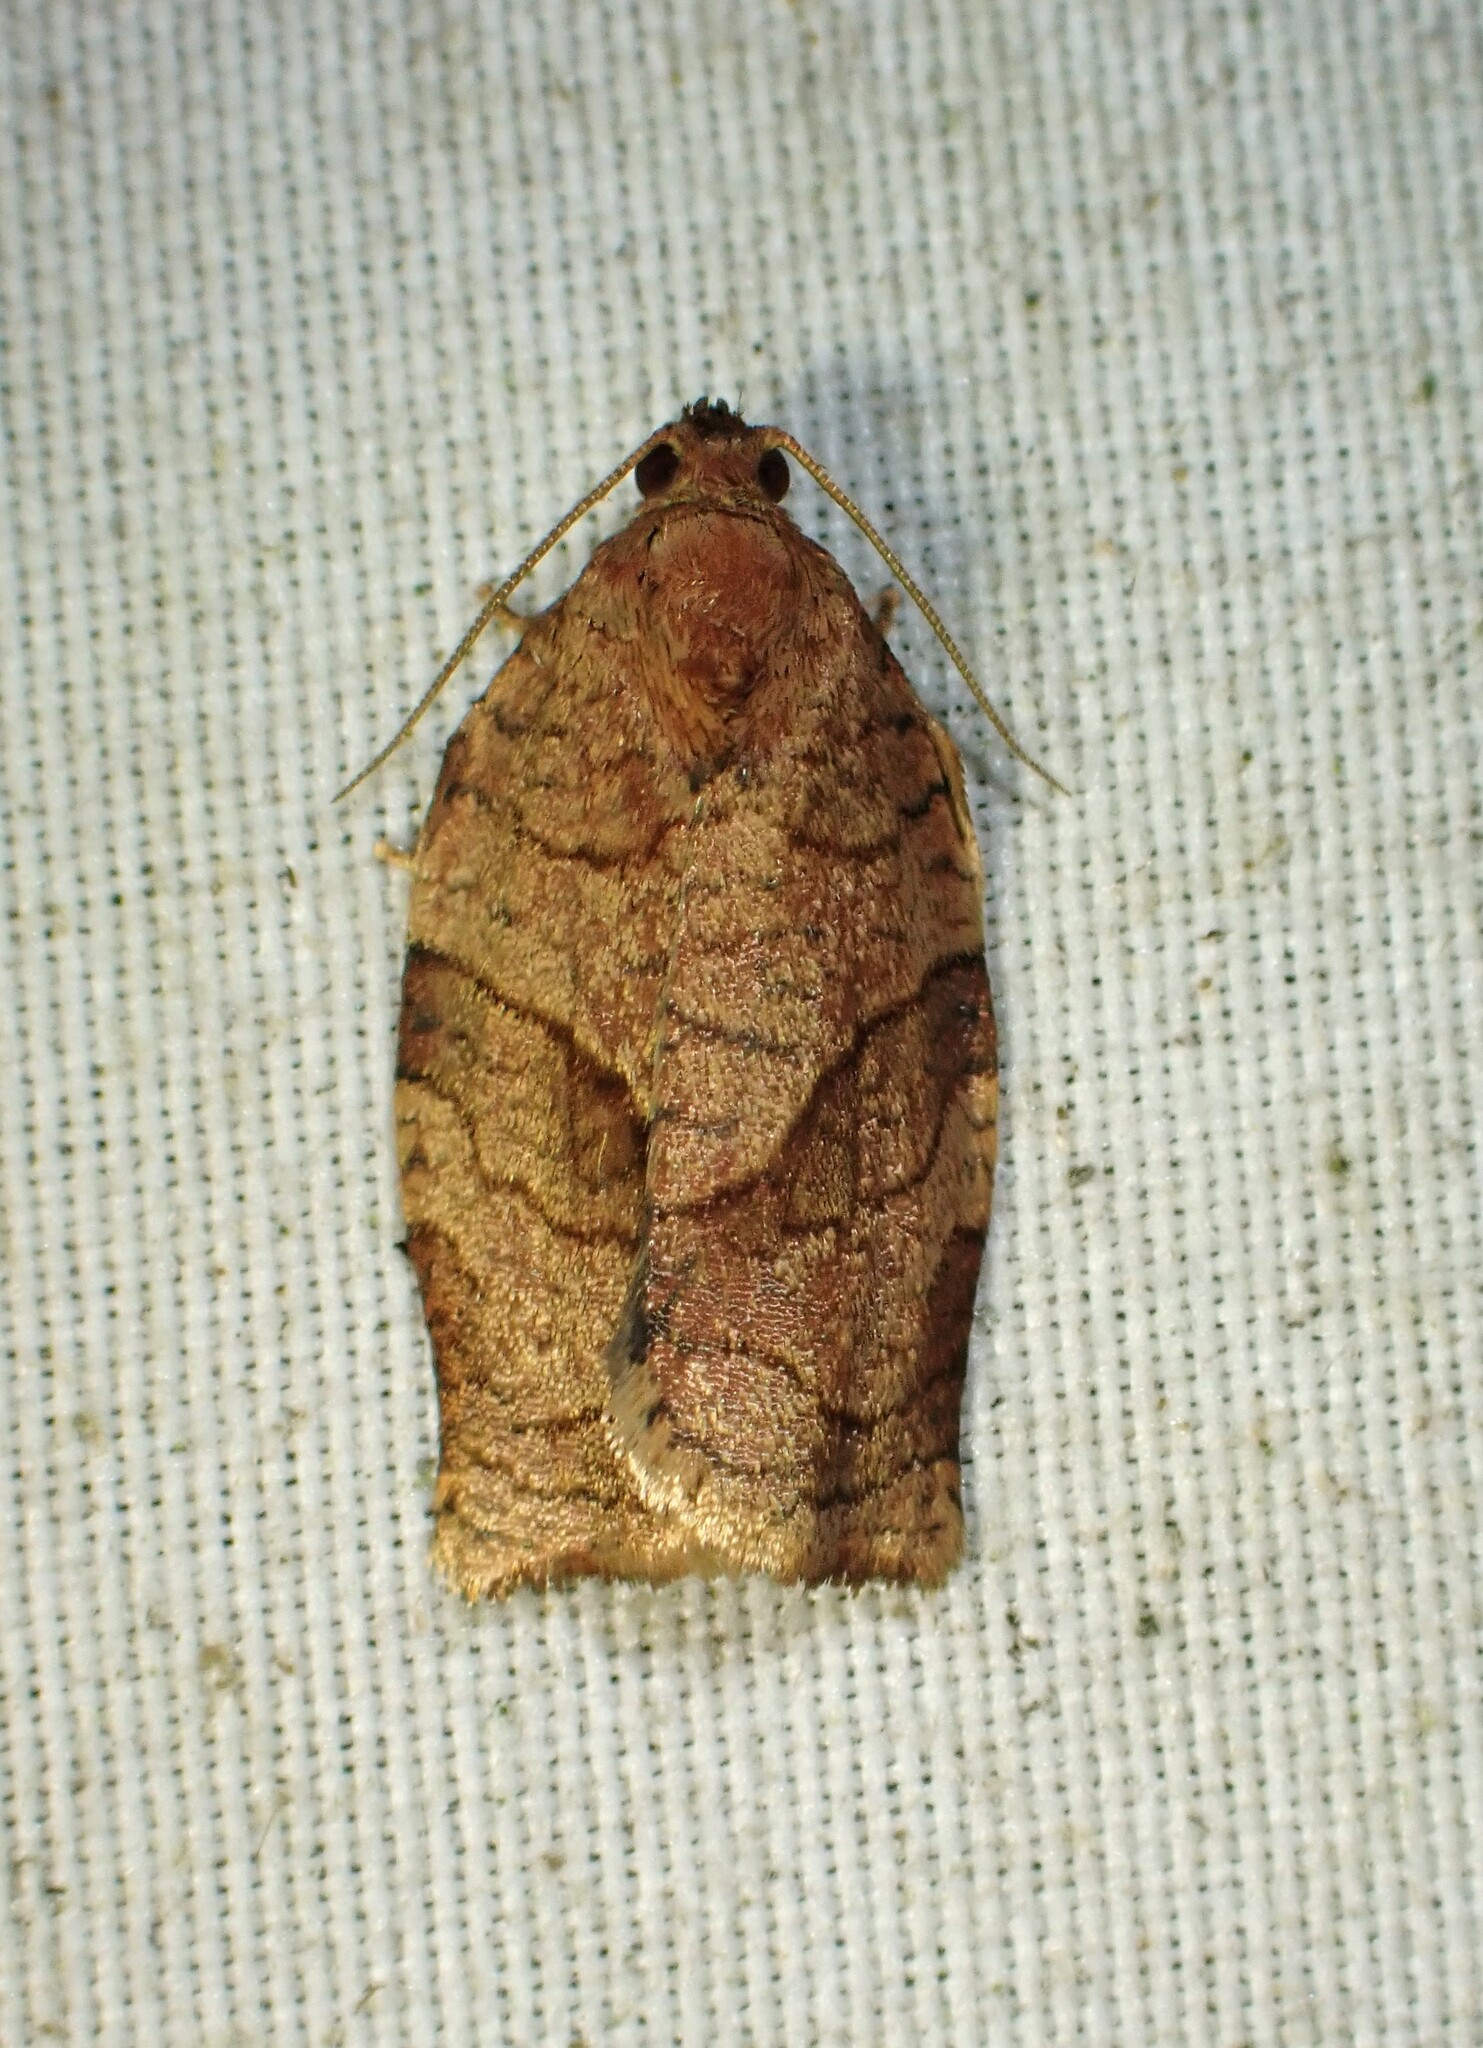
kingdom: Animalia
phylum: Arthropoda
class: Insecta
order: Lepidoptera
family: Tortricidae
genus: Choristoneura
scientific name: Choristoneura rosaceana
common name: Oblique-banded leafroller moth
